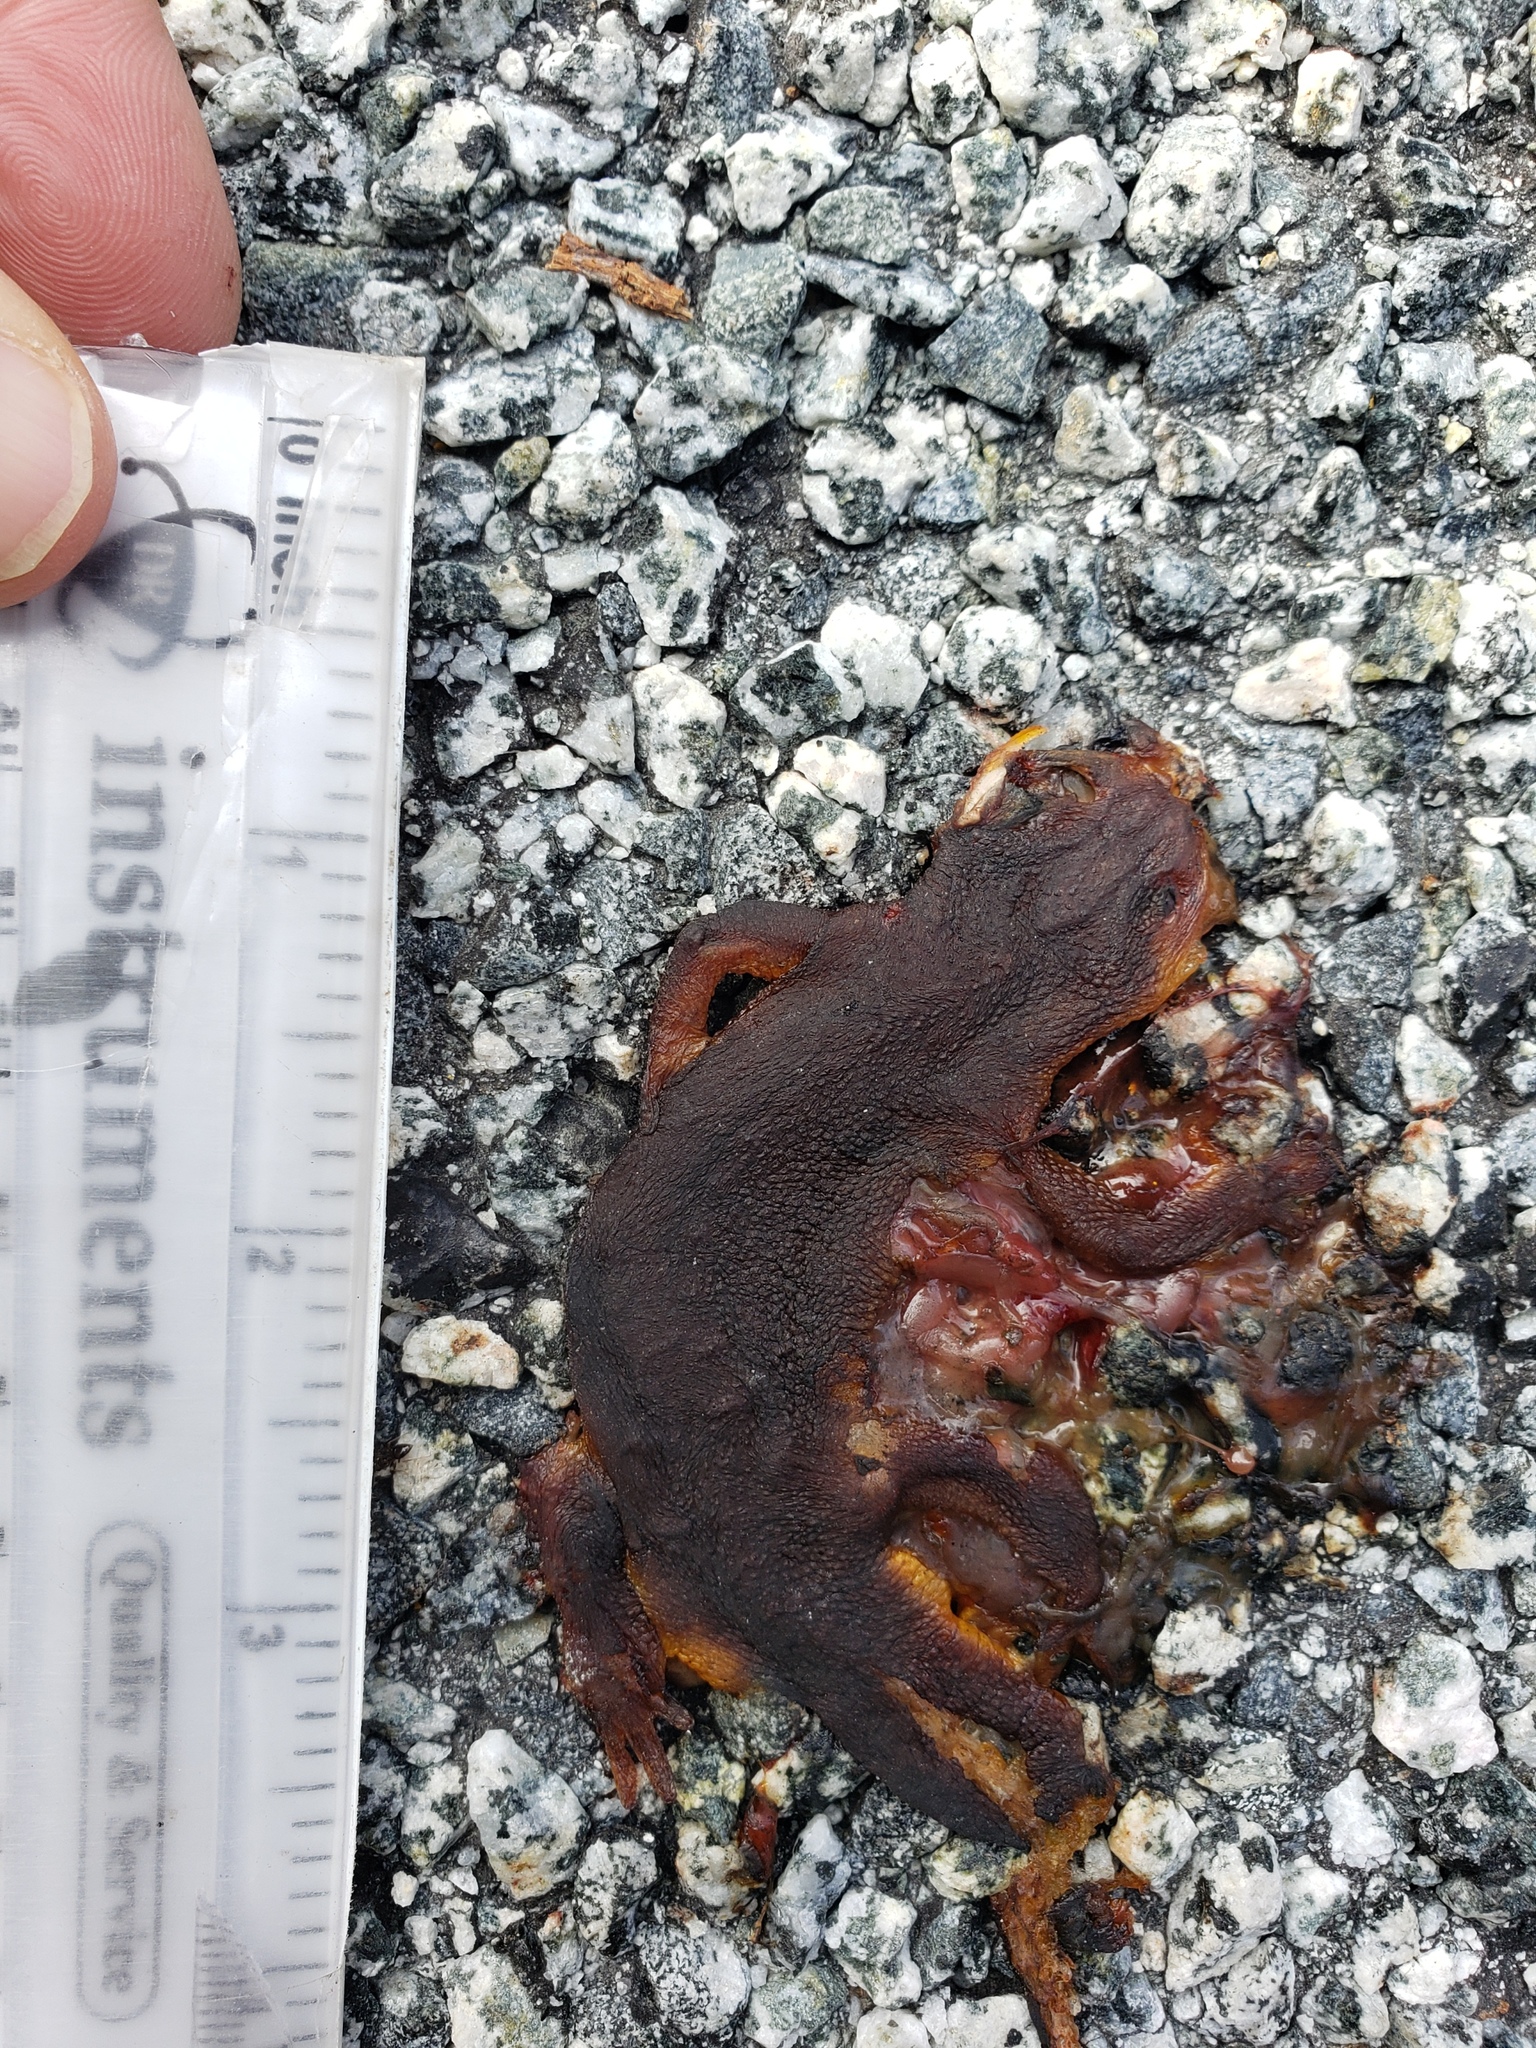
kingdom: Animalia
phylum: Chordata
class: Amphibia
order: Caudata
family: Salamandridae
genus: Taricha
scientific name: Taricha
